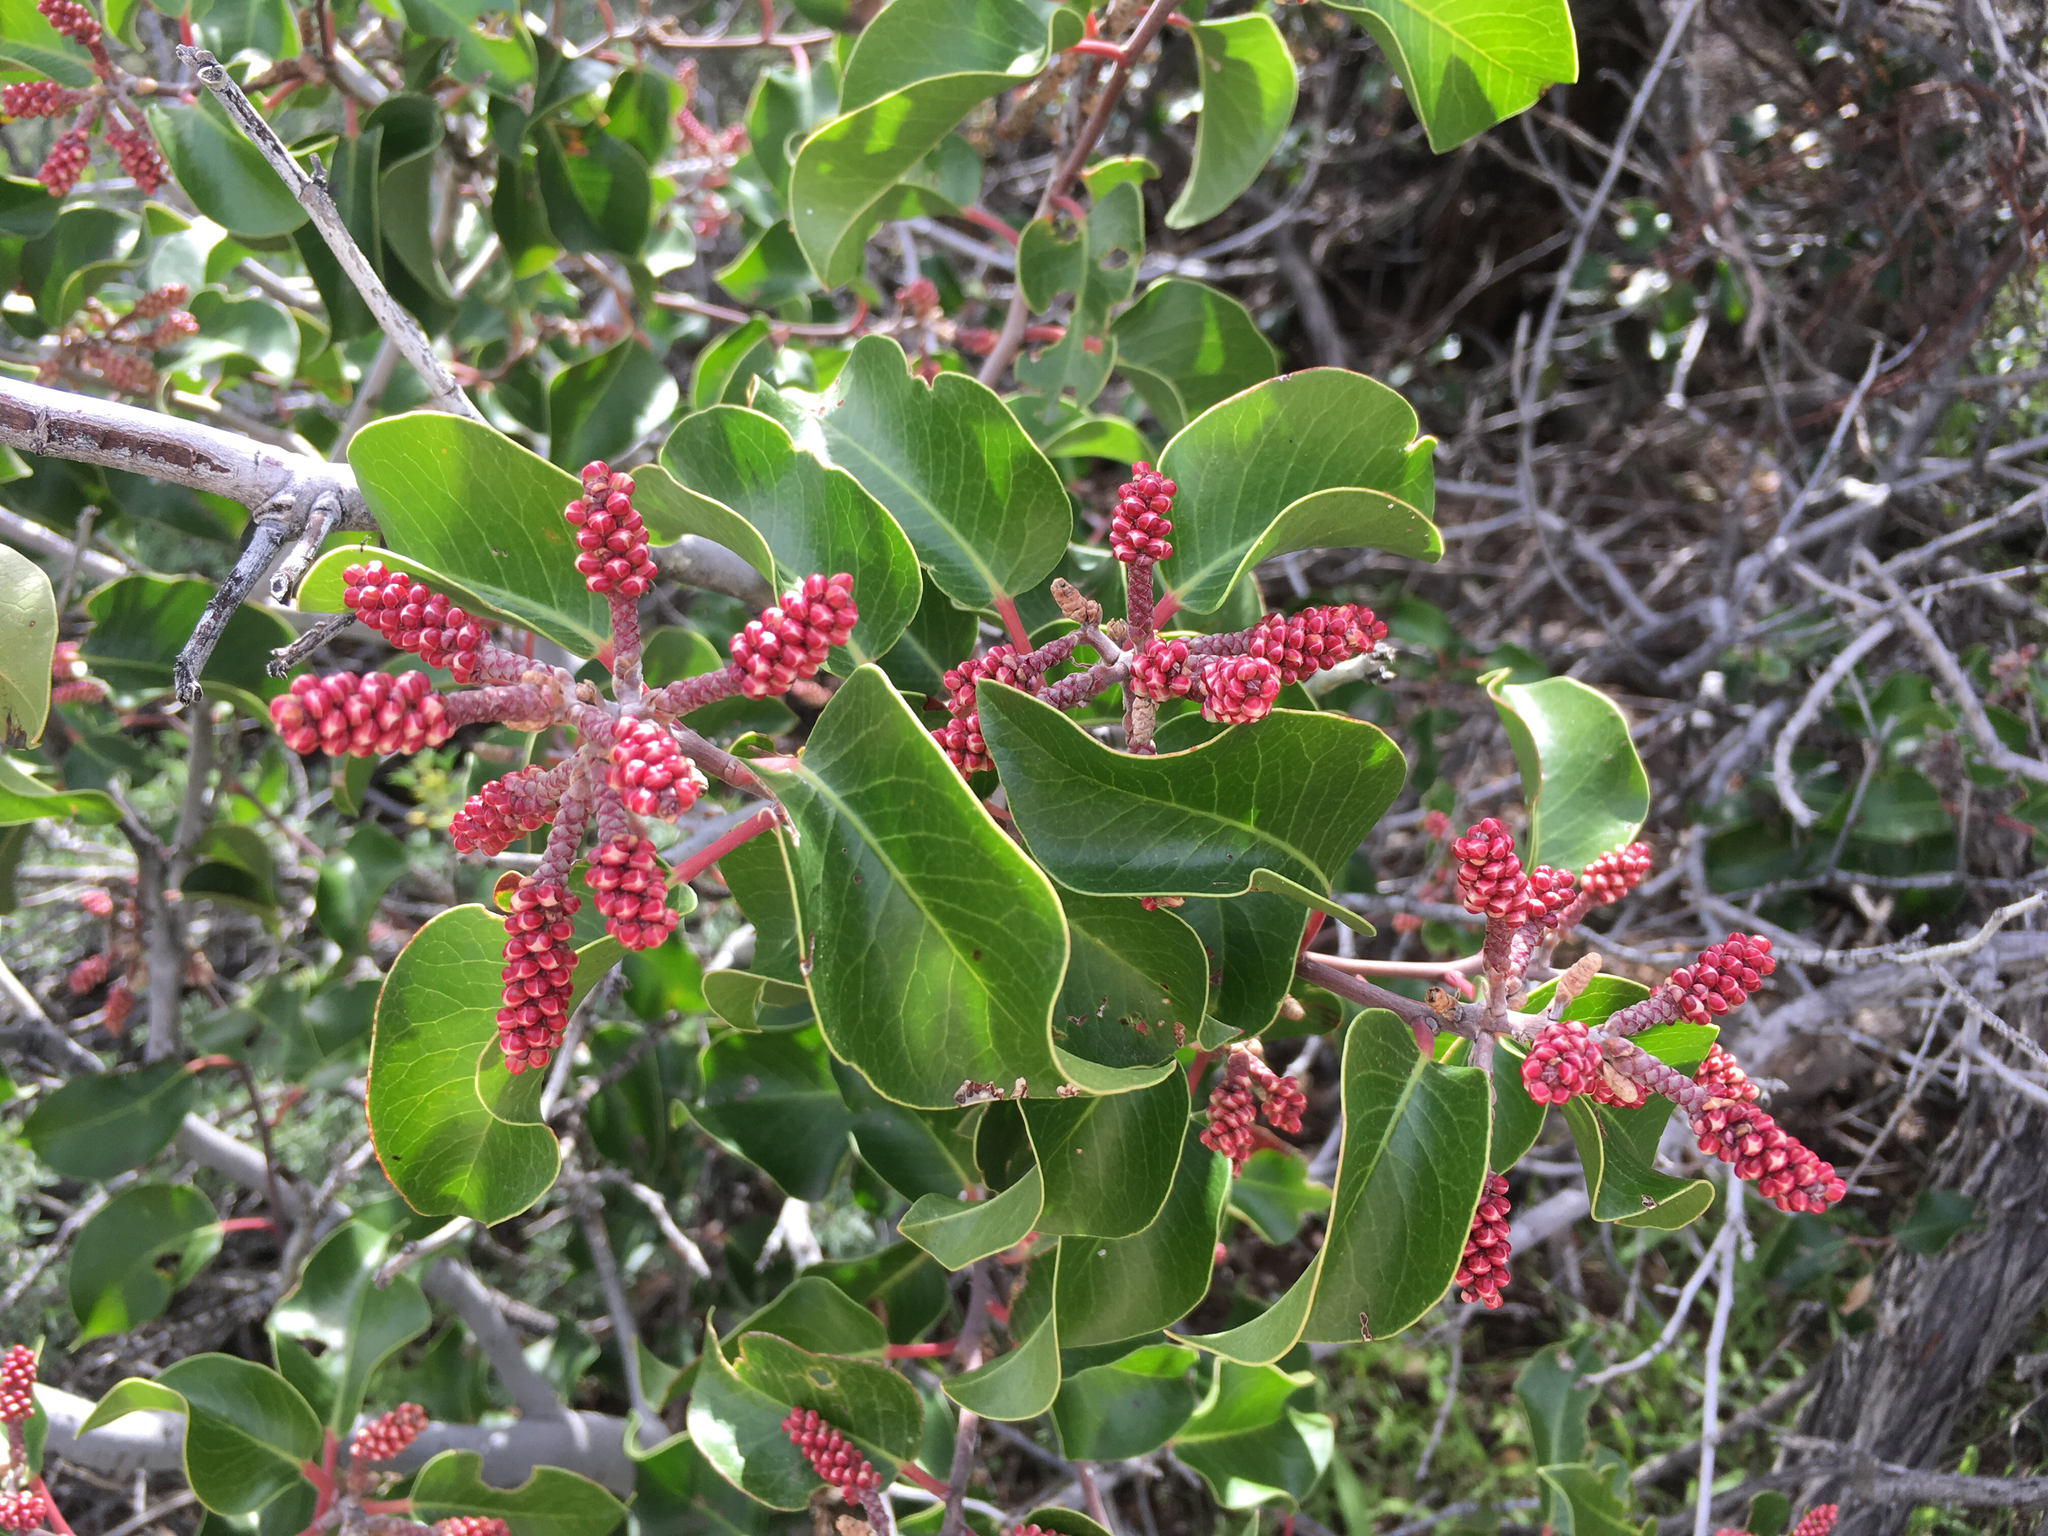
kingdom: Plantae
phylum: Tracheophyta
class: Magnoliopsida
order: Sapindales
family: Anacardiaceae
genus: Rhus
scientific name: Rhus ovata
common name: Sugar sumac
